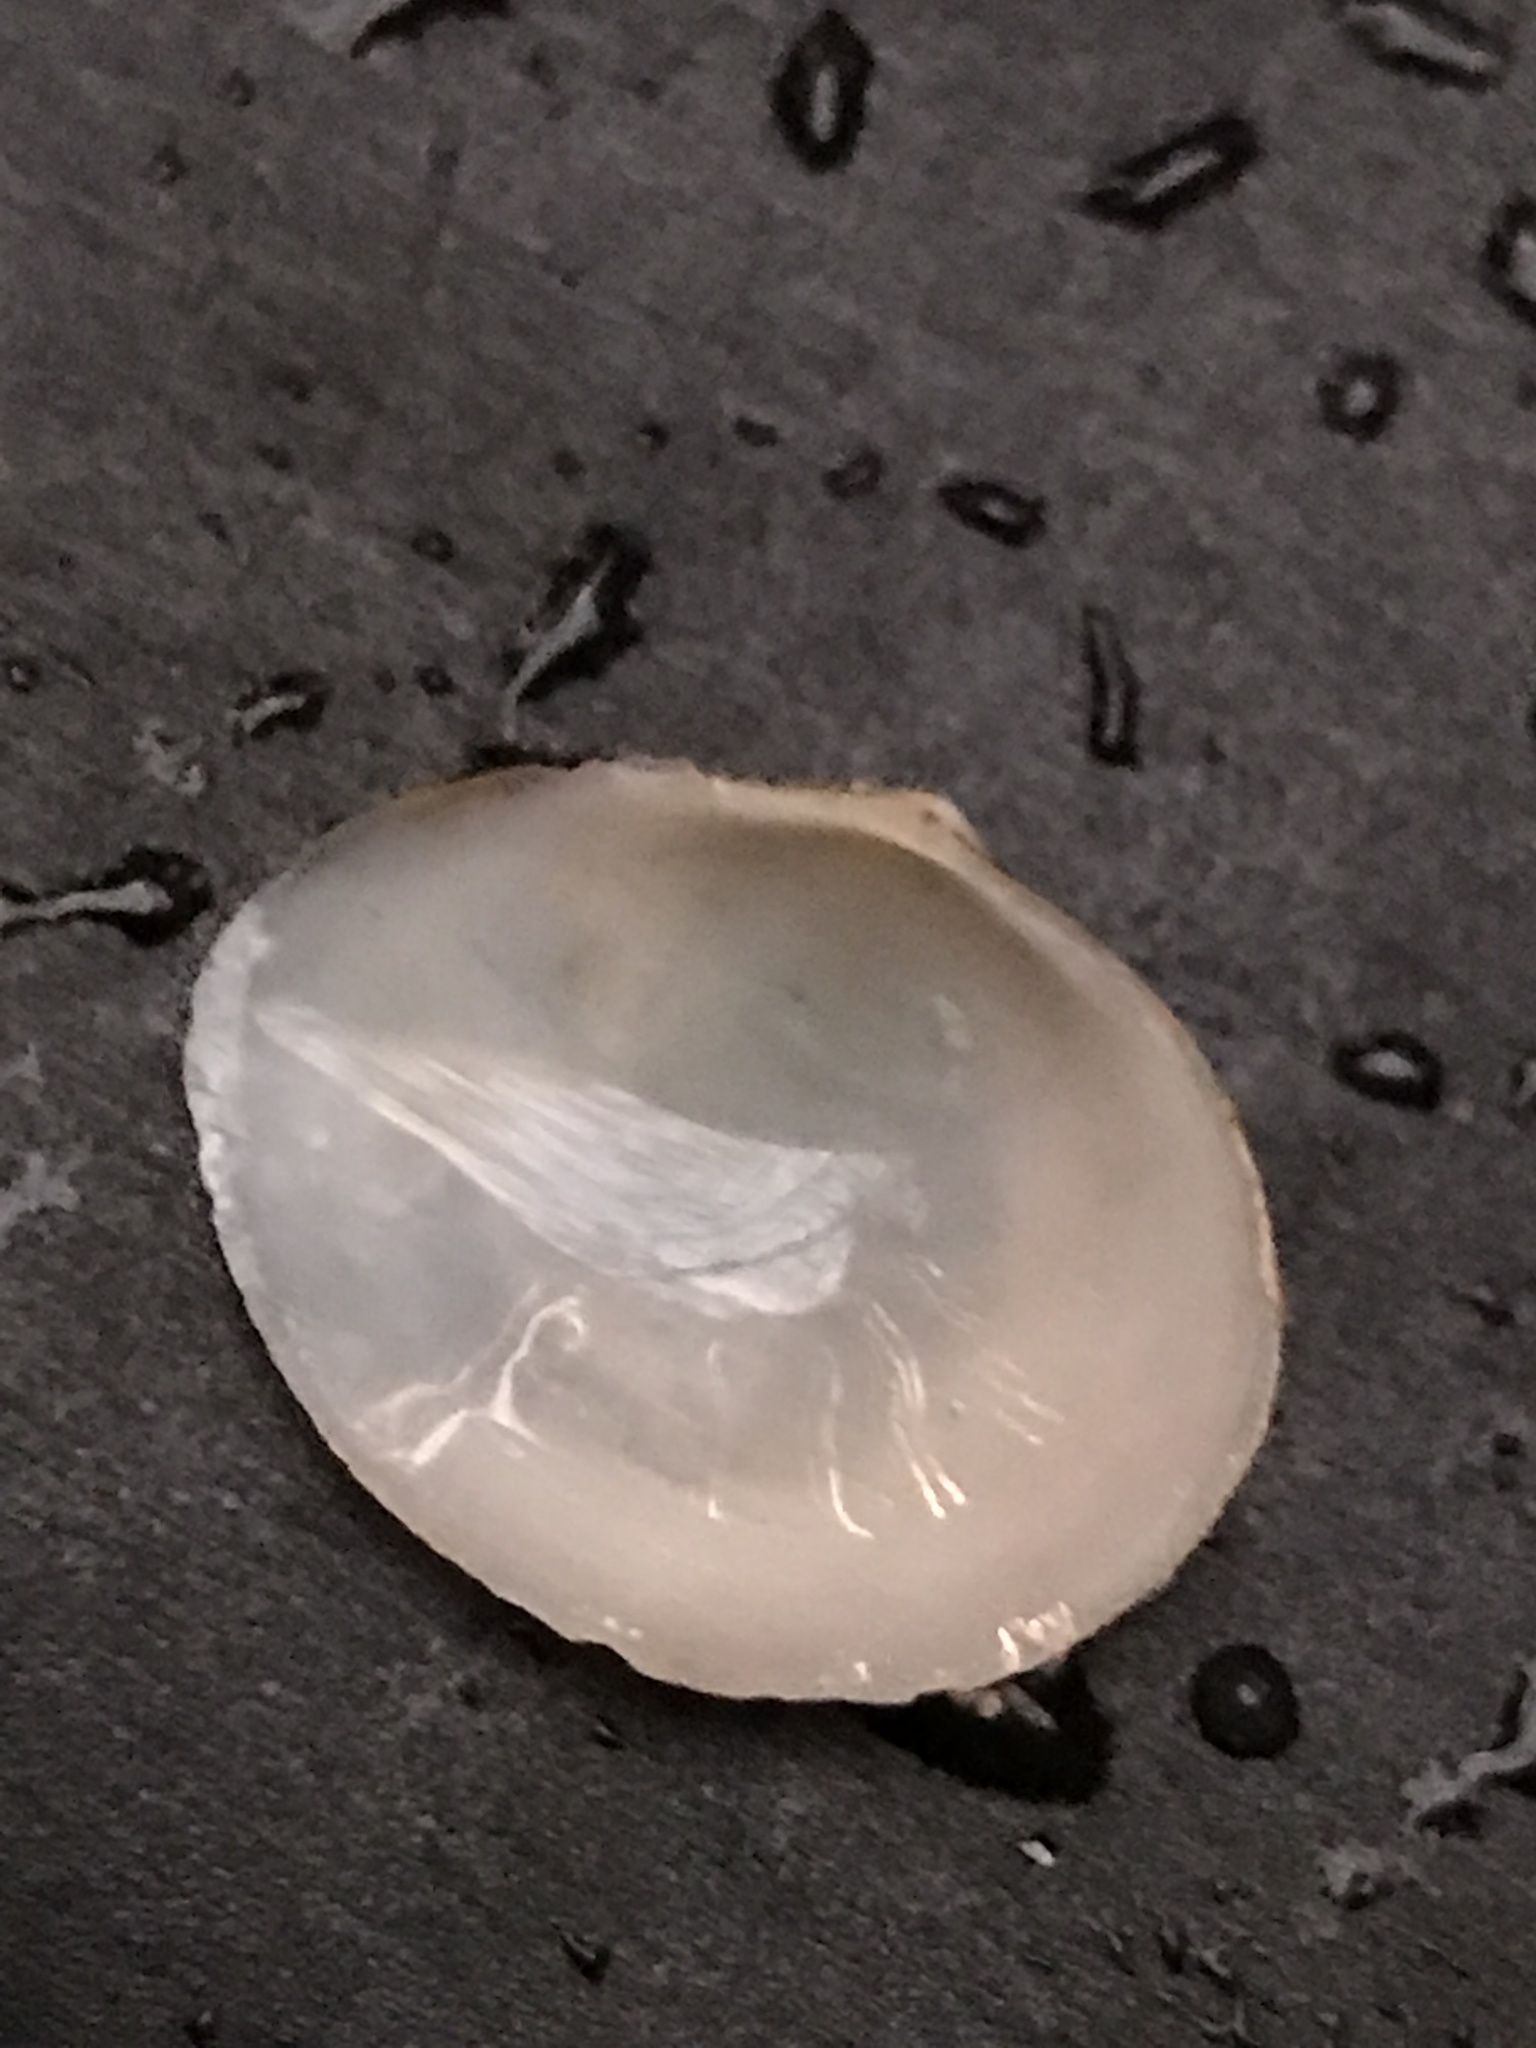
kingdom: Animalia
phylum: Mollusca
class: Bivalvia
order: Cardiida
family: Tellinidae
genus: Macoma
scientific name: Macoma petalum
